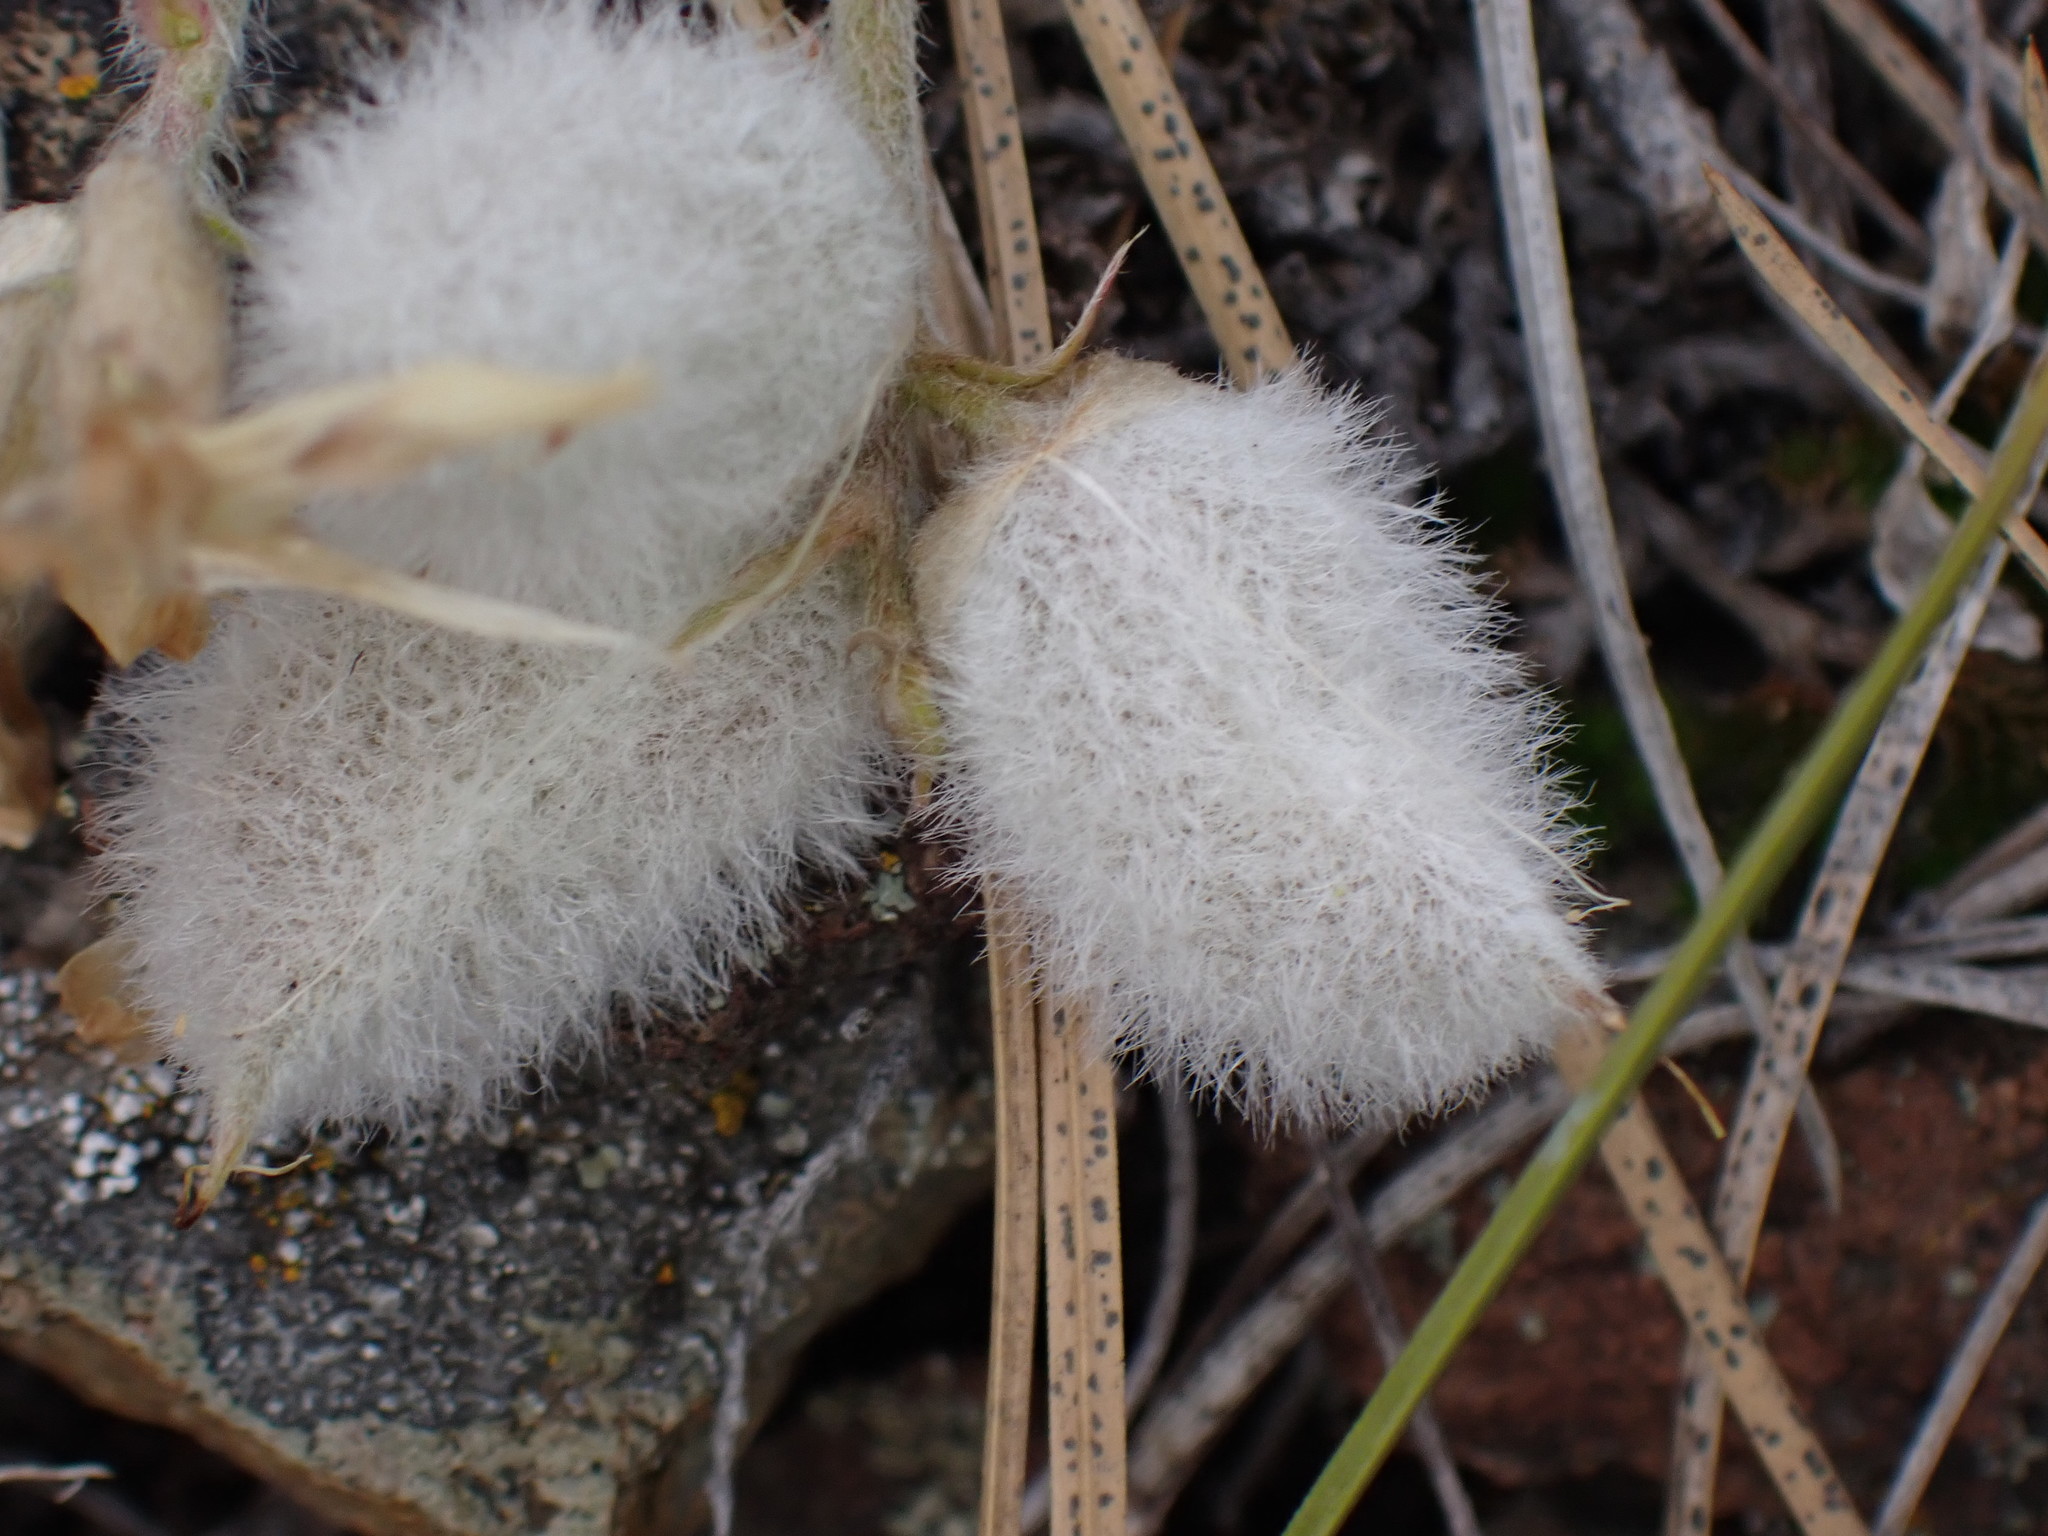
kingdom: Plantae
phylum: Tracheophyta
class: Magnoliopsida
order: Fabales
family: Fabaceae
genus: Astragalus
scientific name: Astragalus purshii
